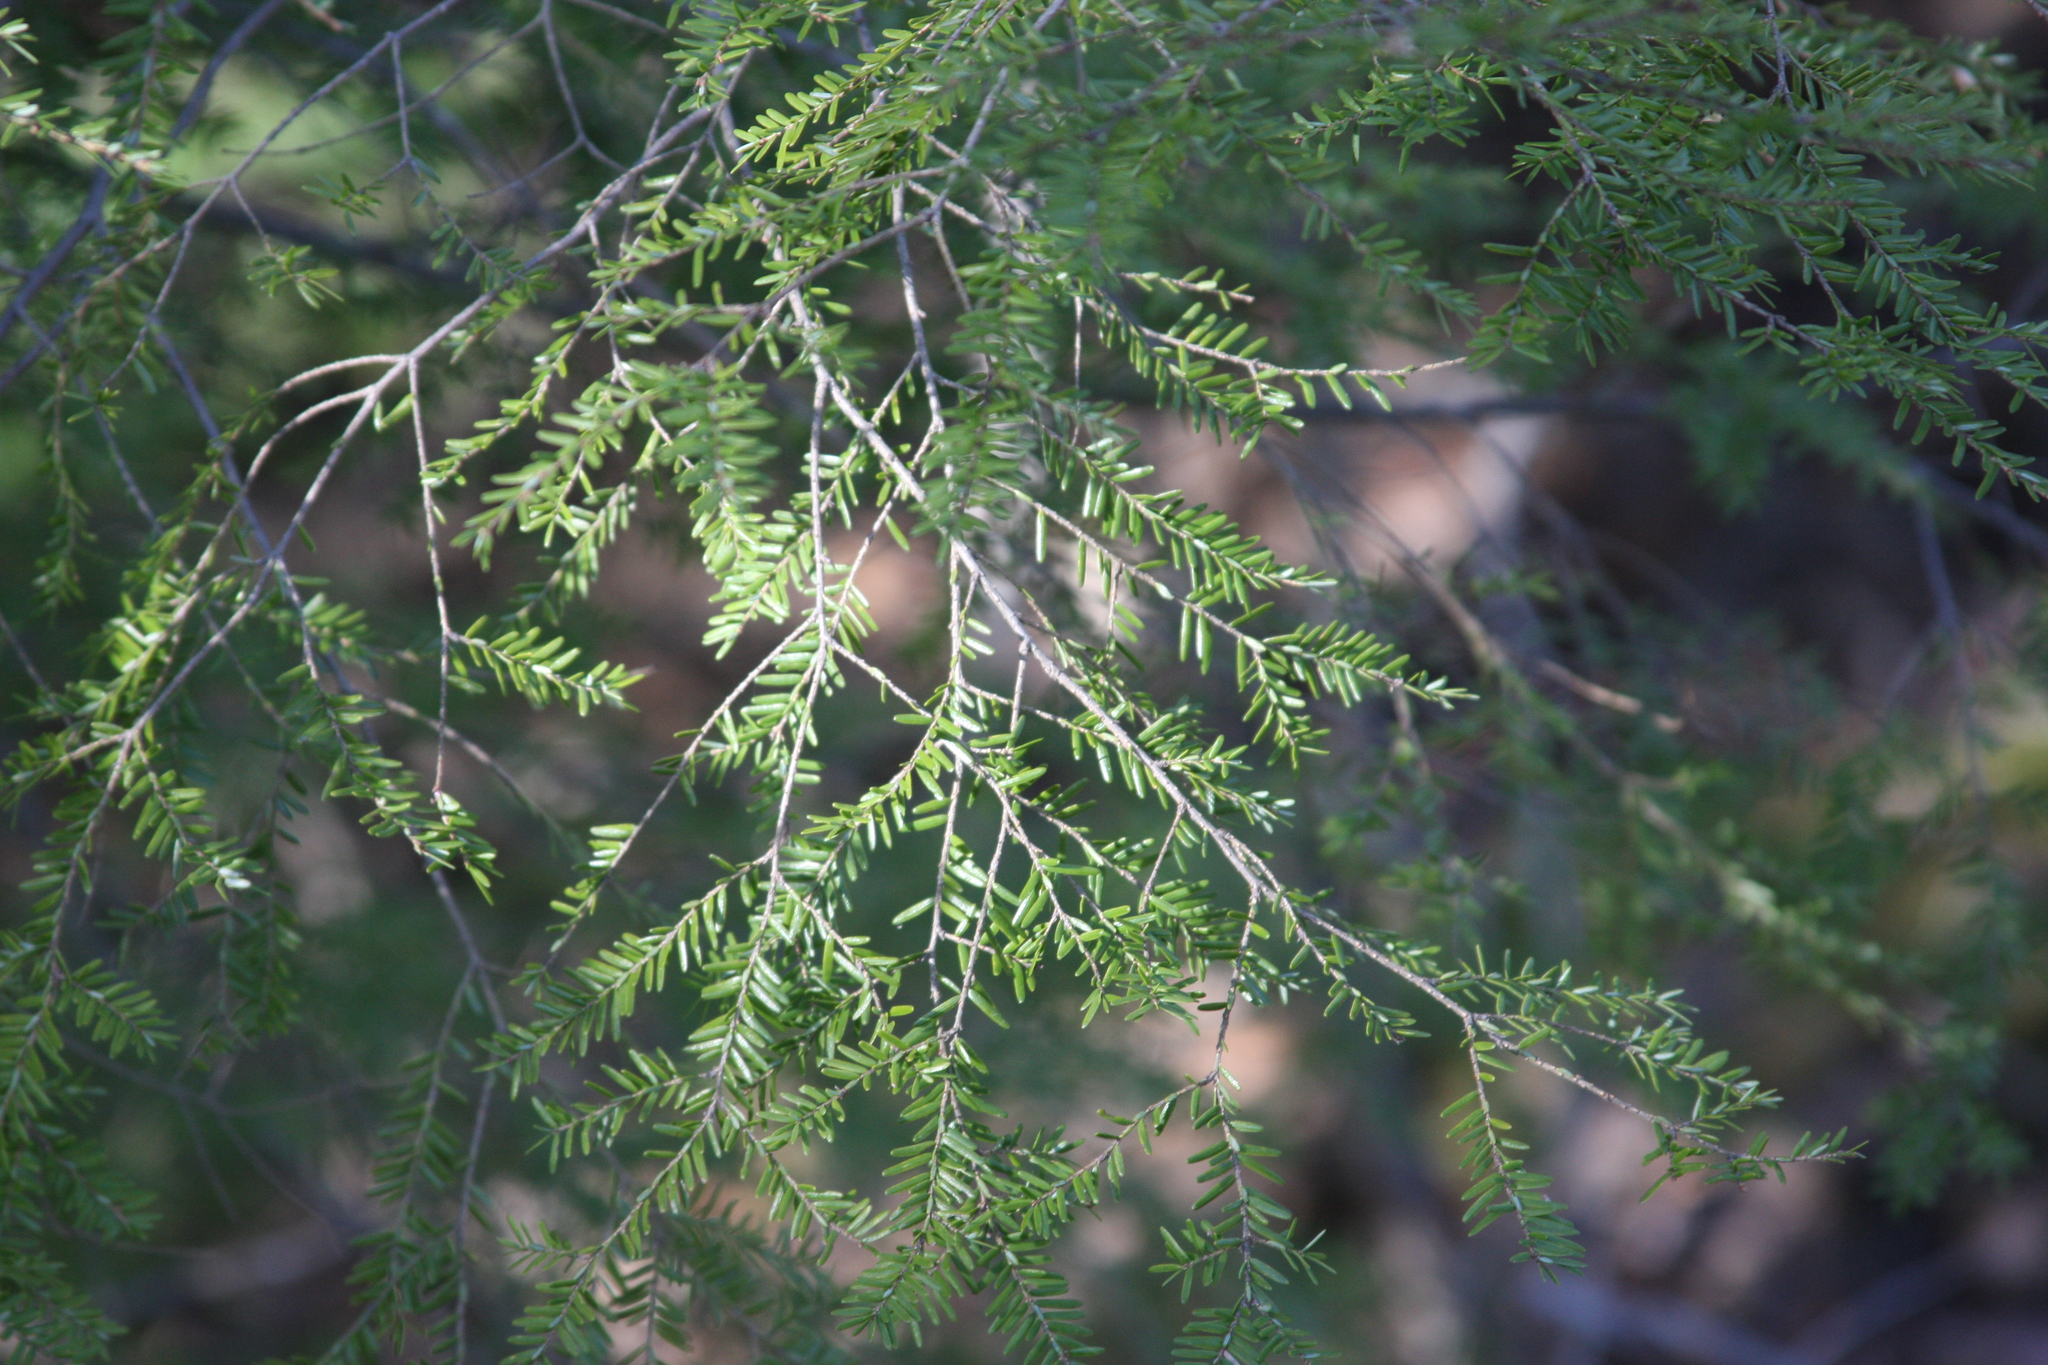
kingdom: Plantae
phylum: Tracheophyta
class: Pinopsida
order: Pinales
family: Pinaceae
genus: Tsuga
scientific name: Tsuga canadensis
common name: Eastern hemlock
